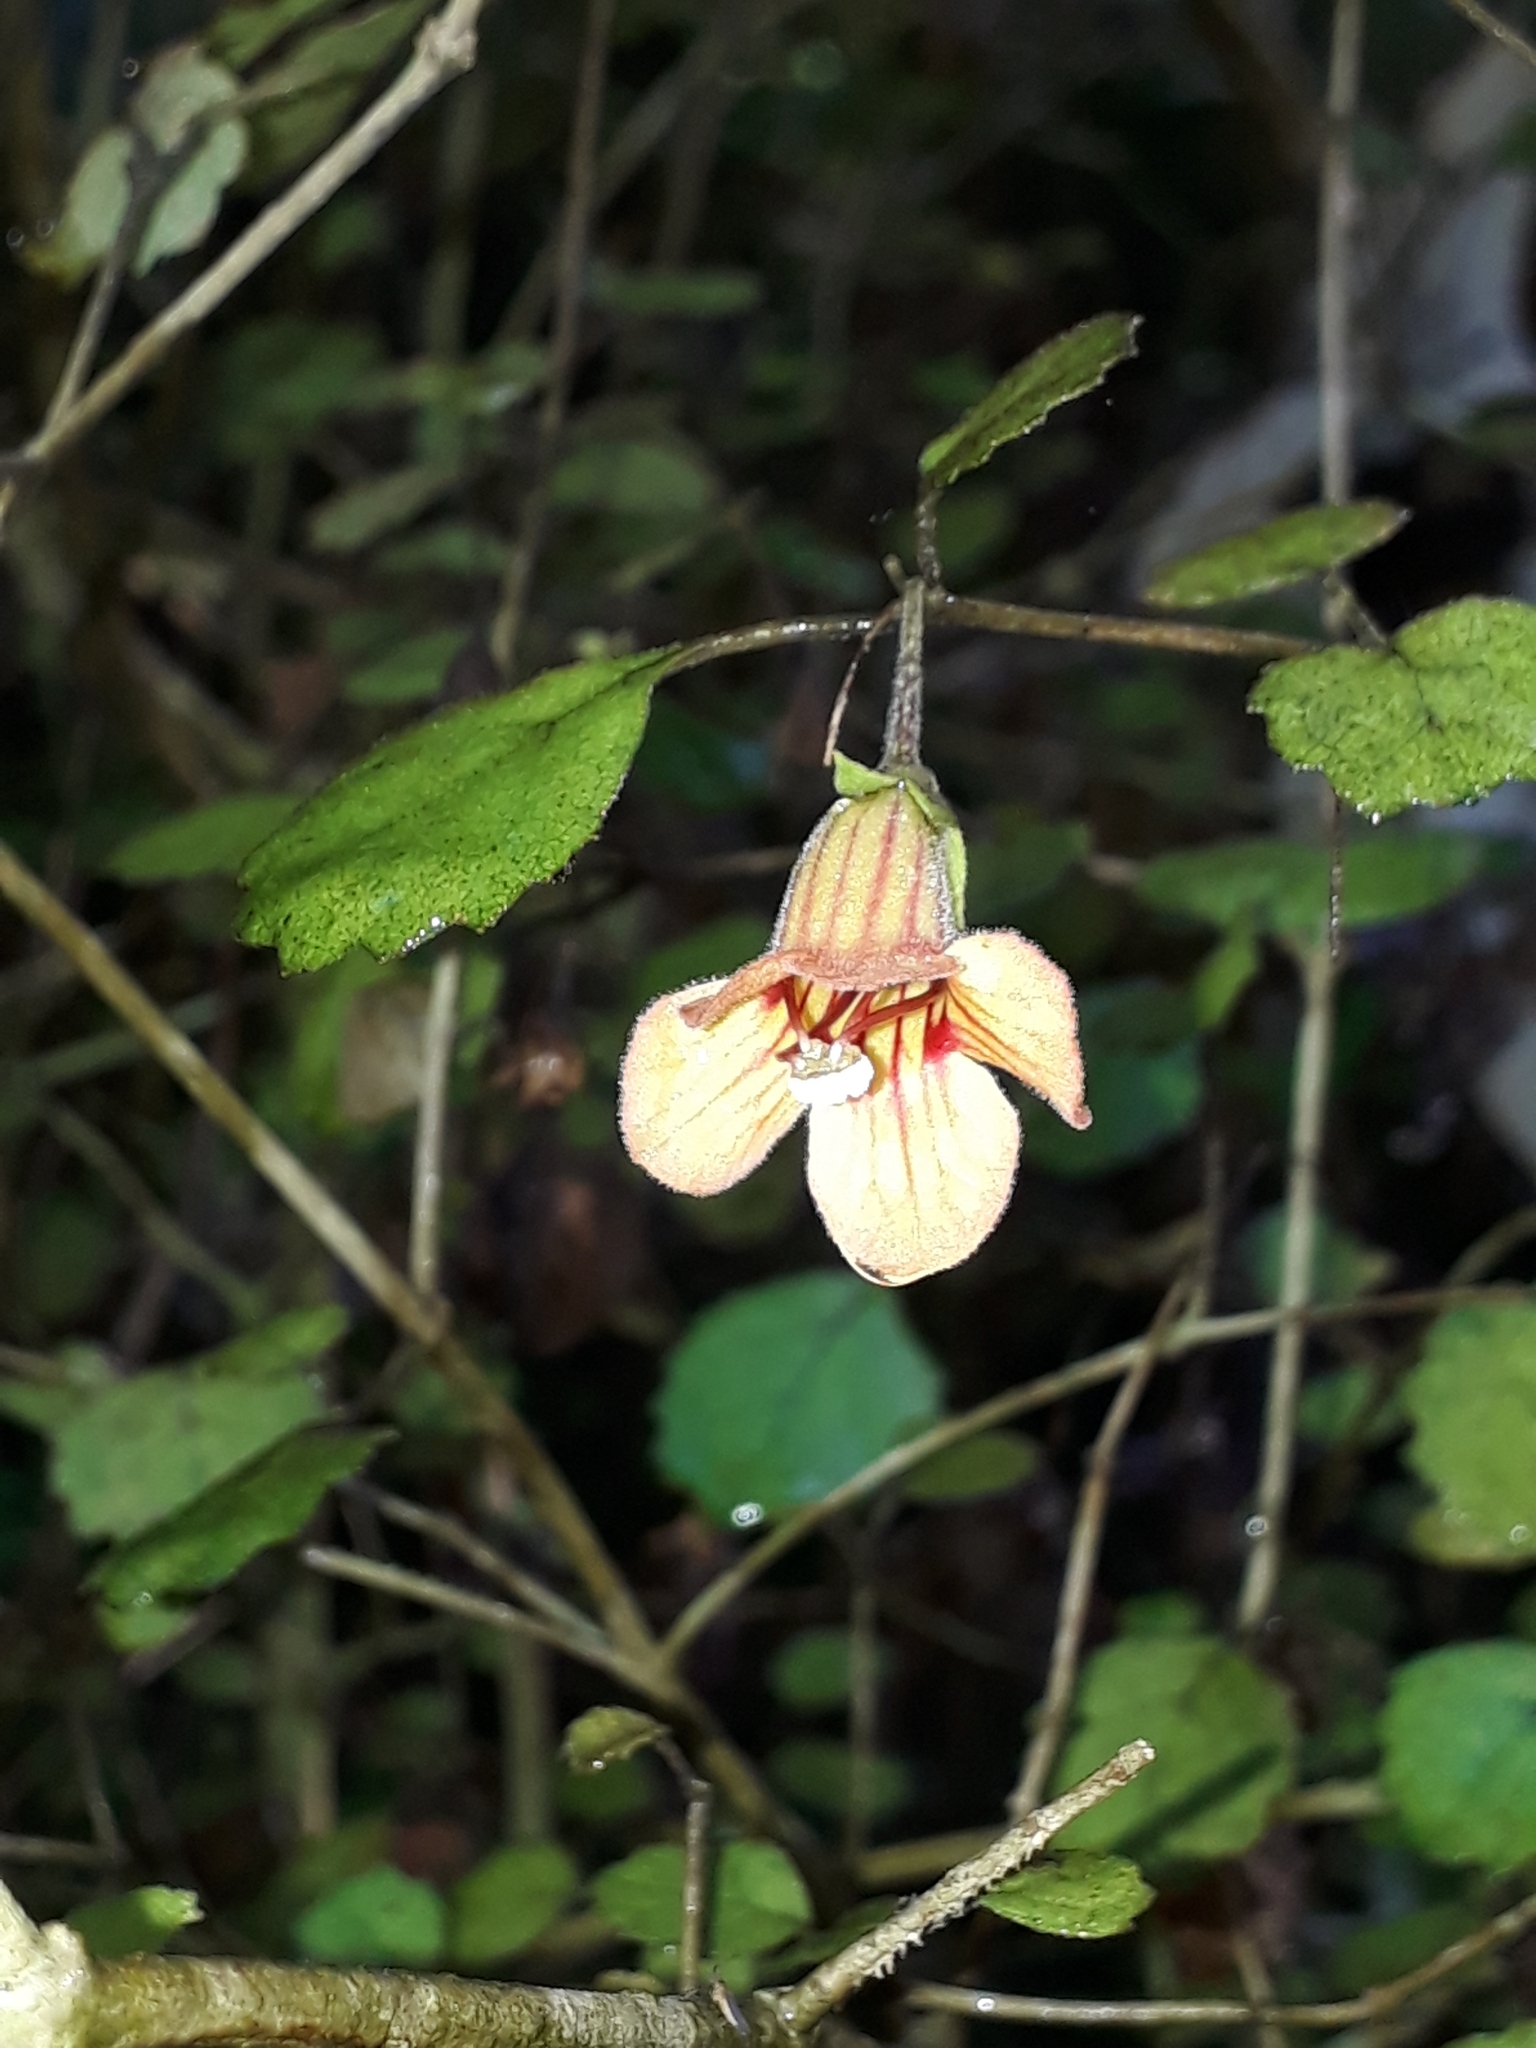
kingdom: Plantae
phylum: Tracheophyta
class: Magnoliopsida
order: Lamiales
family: Gesneriaceae
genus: Rhabdothamnus
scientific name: Rhabdothamnus solandri
